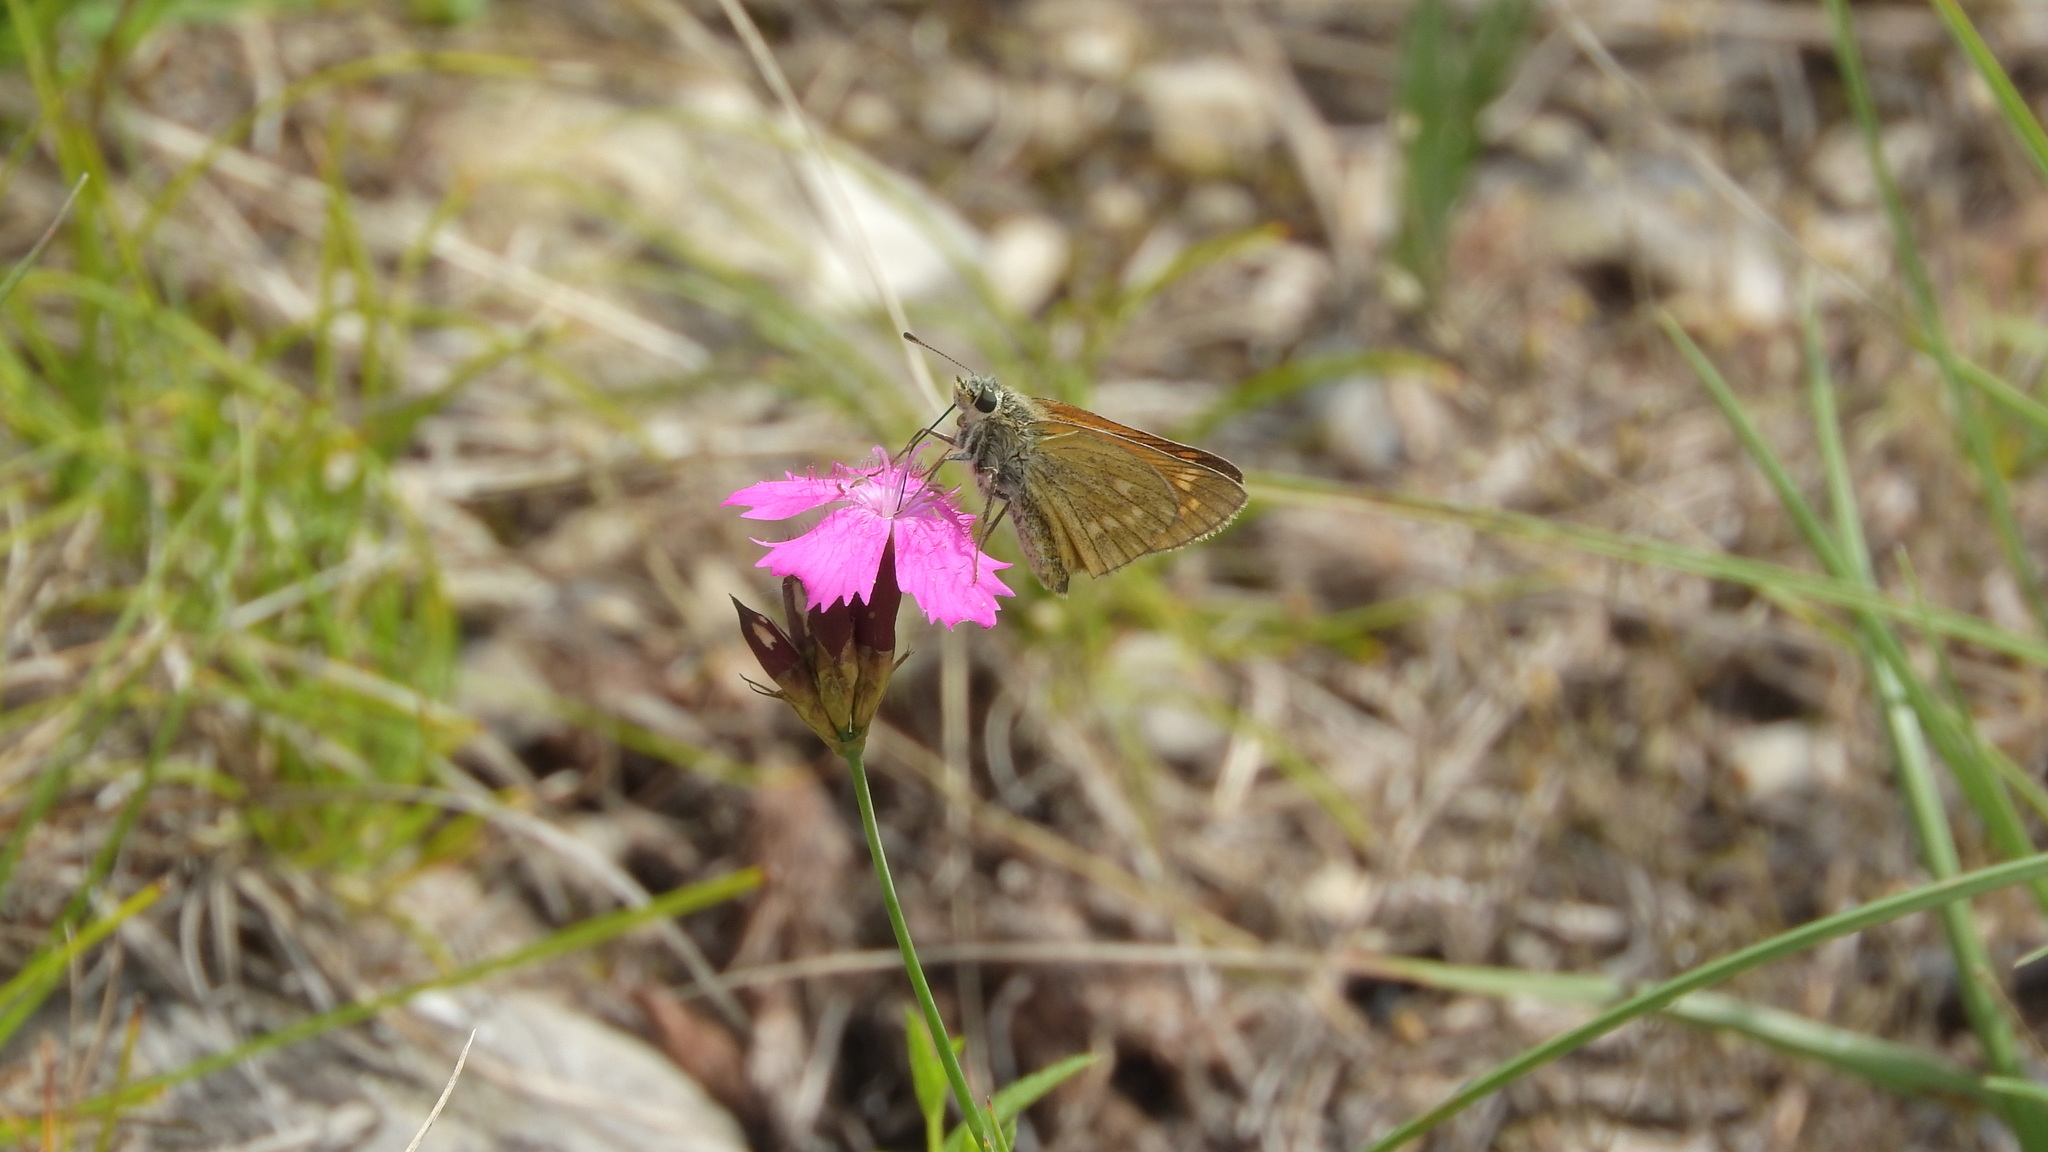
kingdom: Animalia
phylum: Arthropoda
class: Insecta
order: Lepidoptera
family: Hesperiidae
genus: Ochlodes
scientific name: Ochlodes venata
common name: Large skipper
